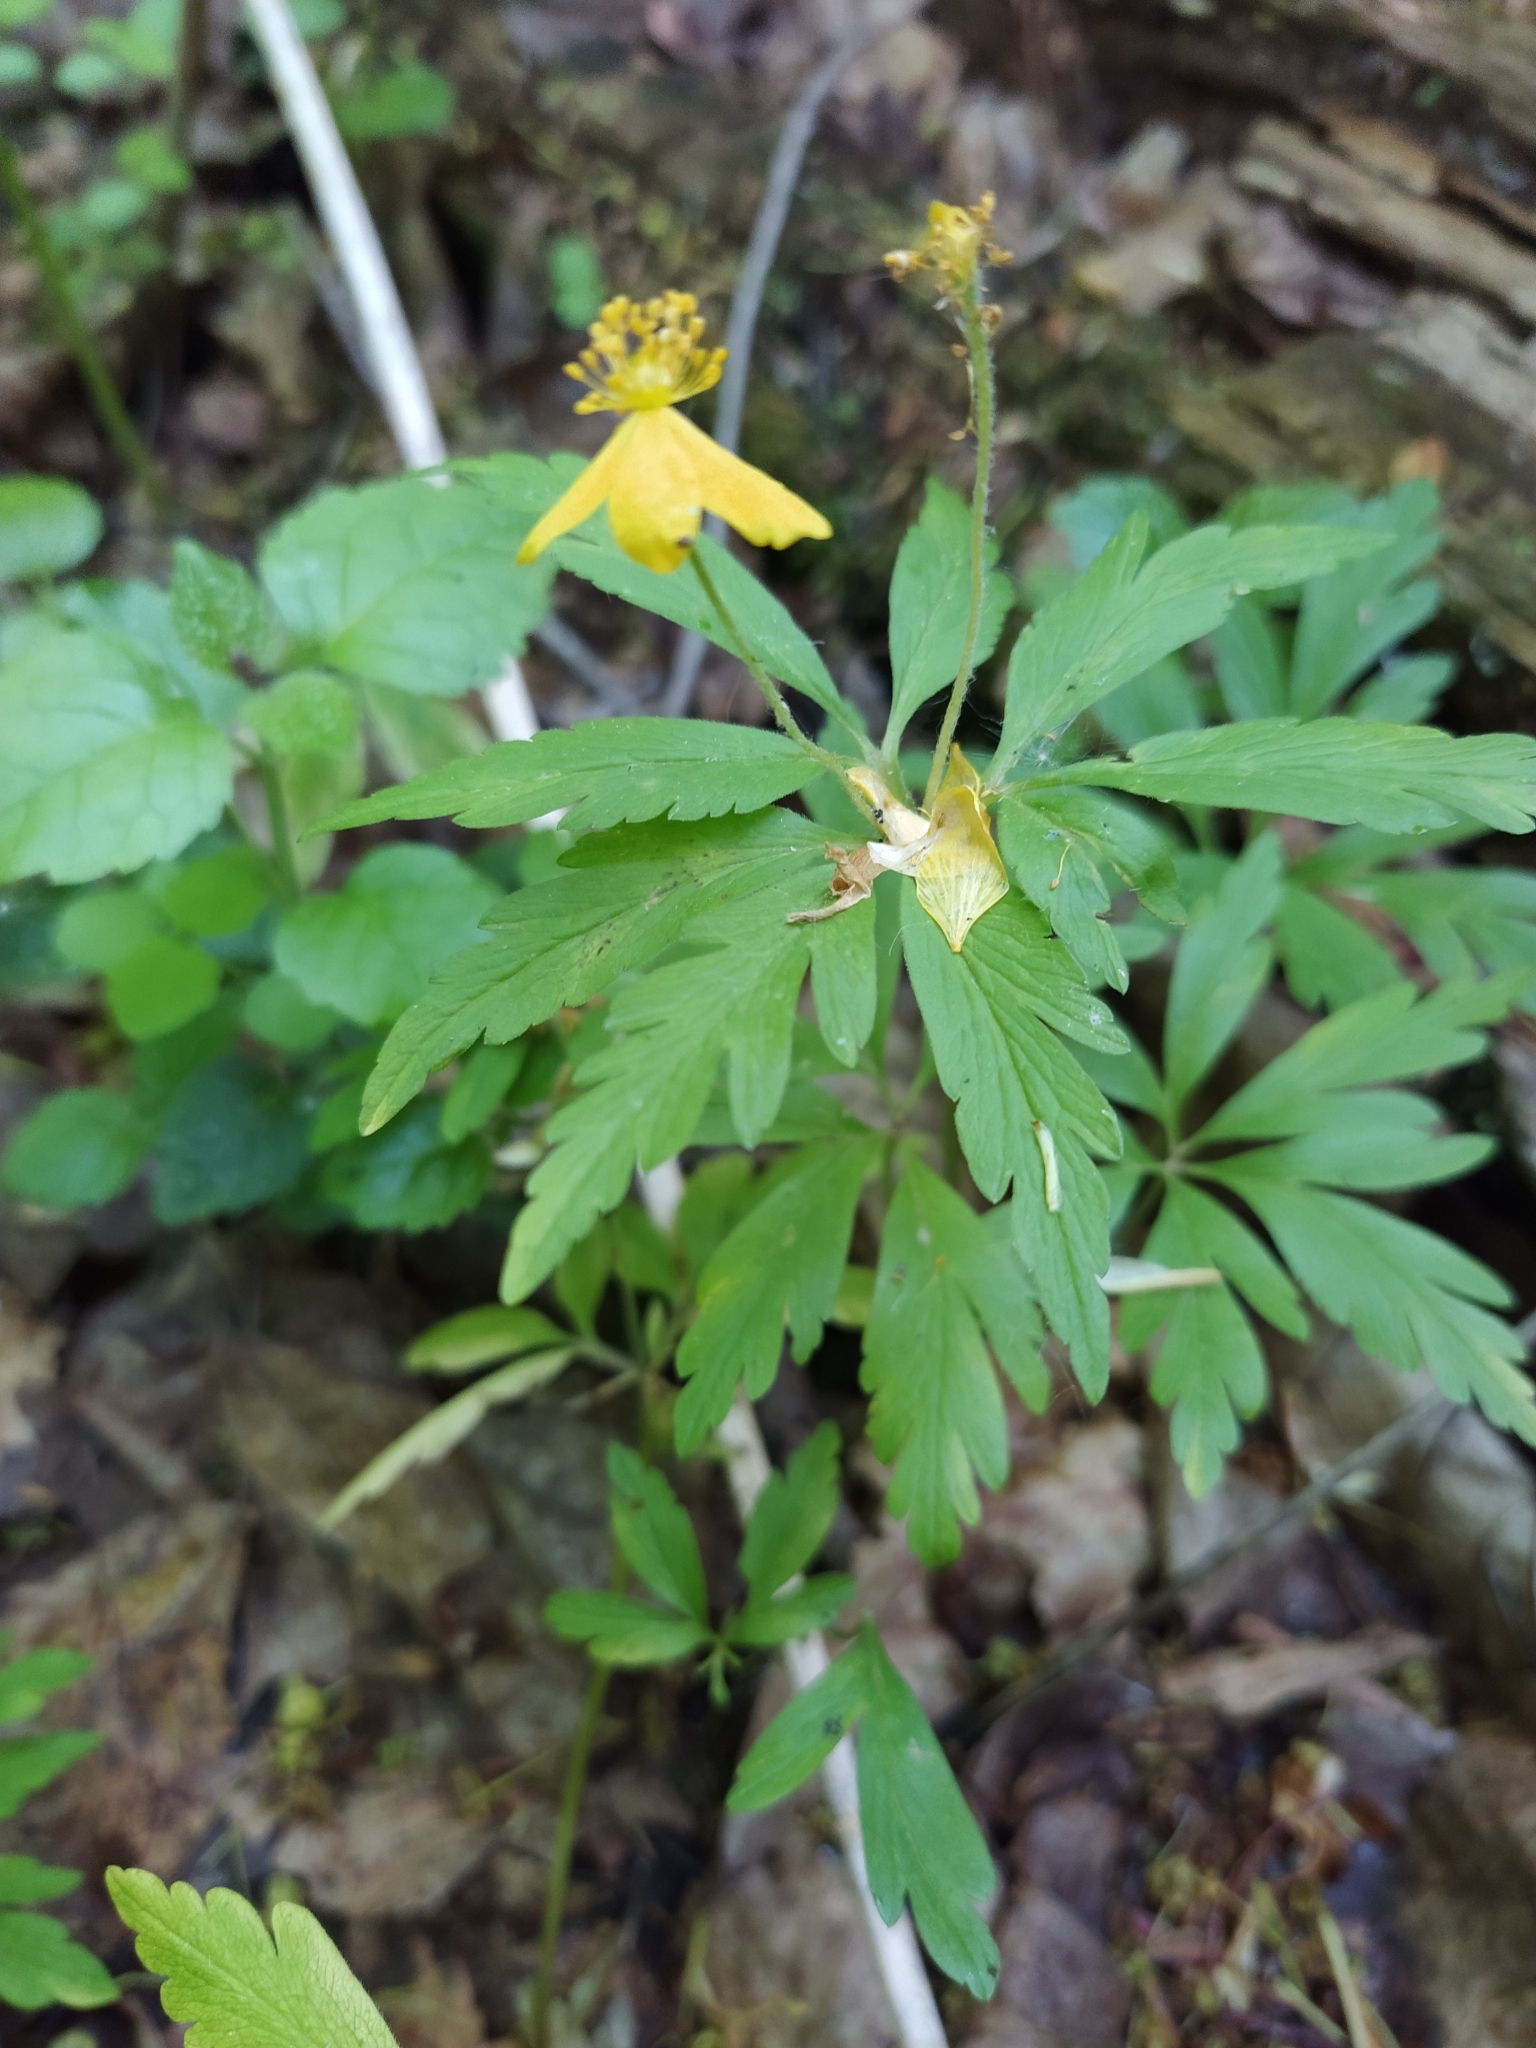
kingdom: Plantae
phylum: Tracheophyta
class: Magnoliopsida
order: Ranunculales
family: Ranunculaceae
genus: Anemone
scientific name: Anemone ranunculoides
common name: Yellow anemone
